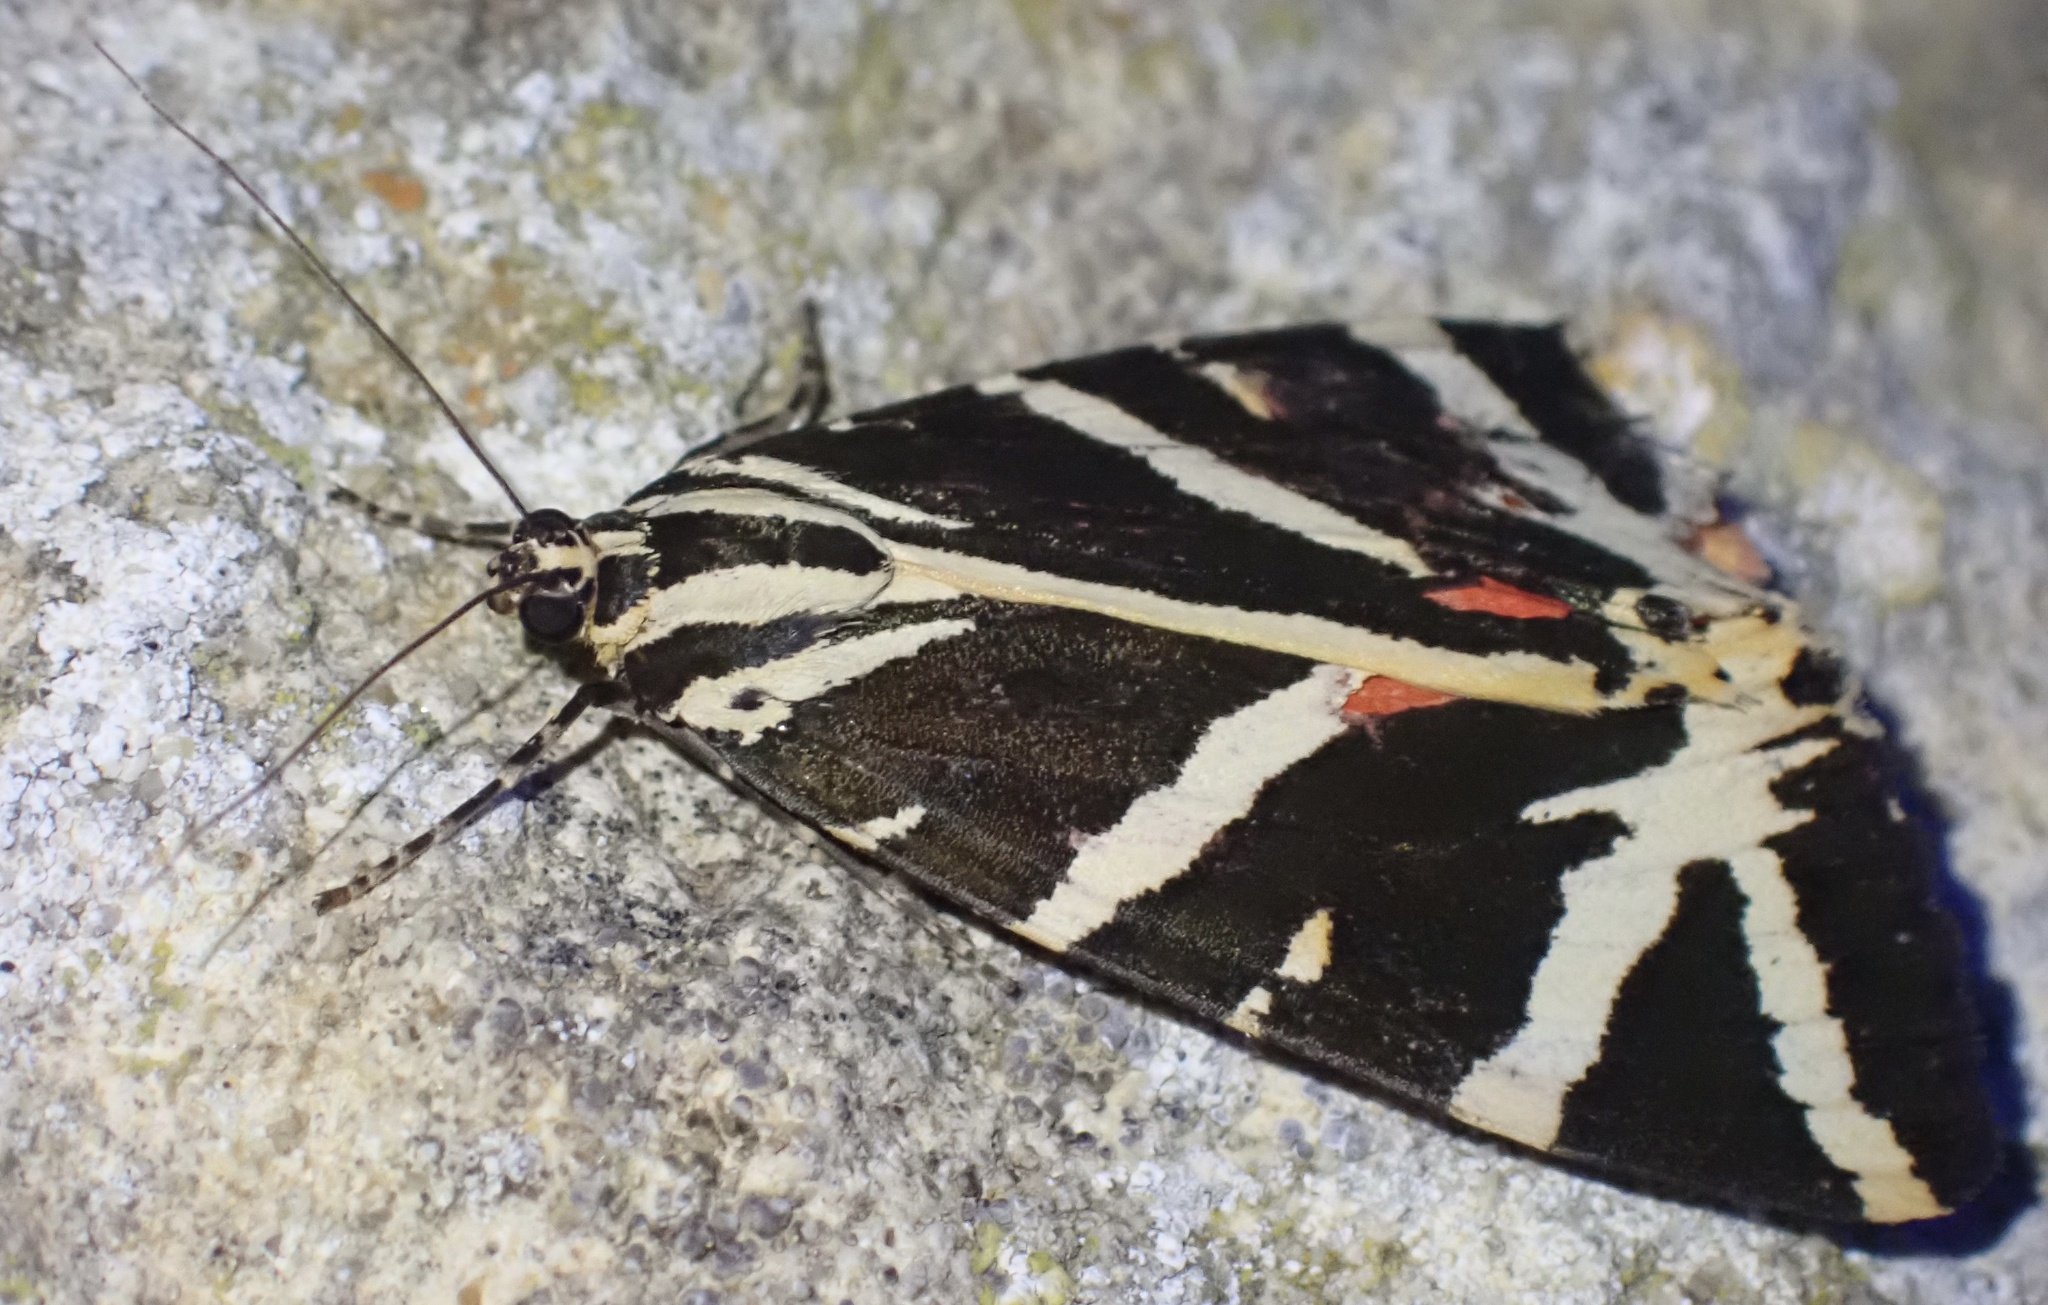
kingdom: Animalia
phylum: Arthropoda
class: Insecta
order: Lepidoptera
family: Erebidae
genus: Euplagia
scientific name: Euplagia quadripunctaria
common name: Jersey tiger
